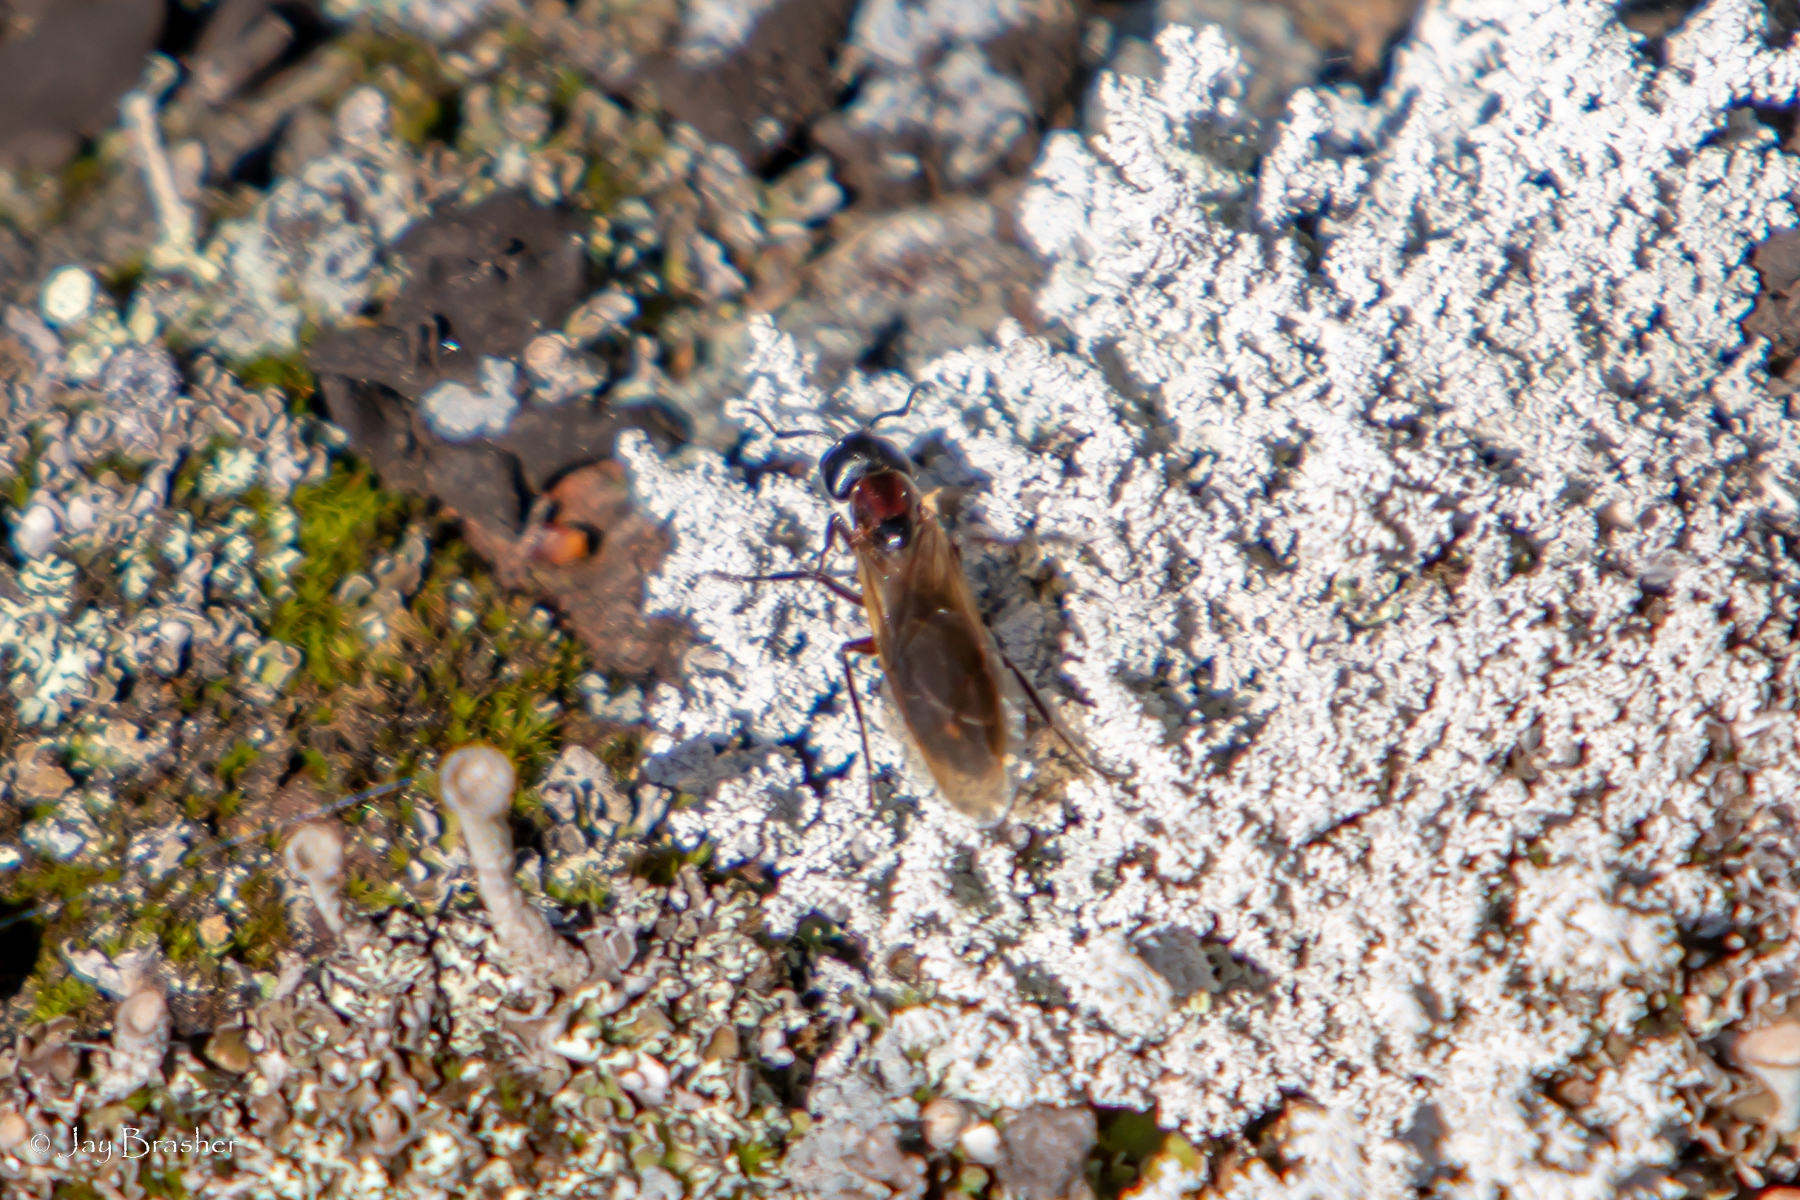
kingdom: Animalia
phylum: Arthropoda
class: Insecta
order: Hymenoptera
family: Formicidae
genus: Camponotus
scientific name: Camponotus novaeboracensis
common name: New york carpenter ant
